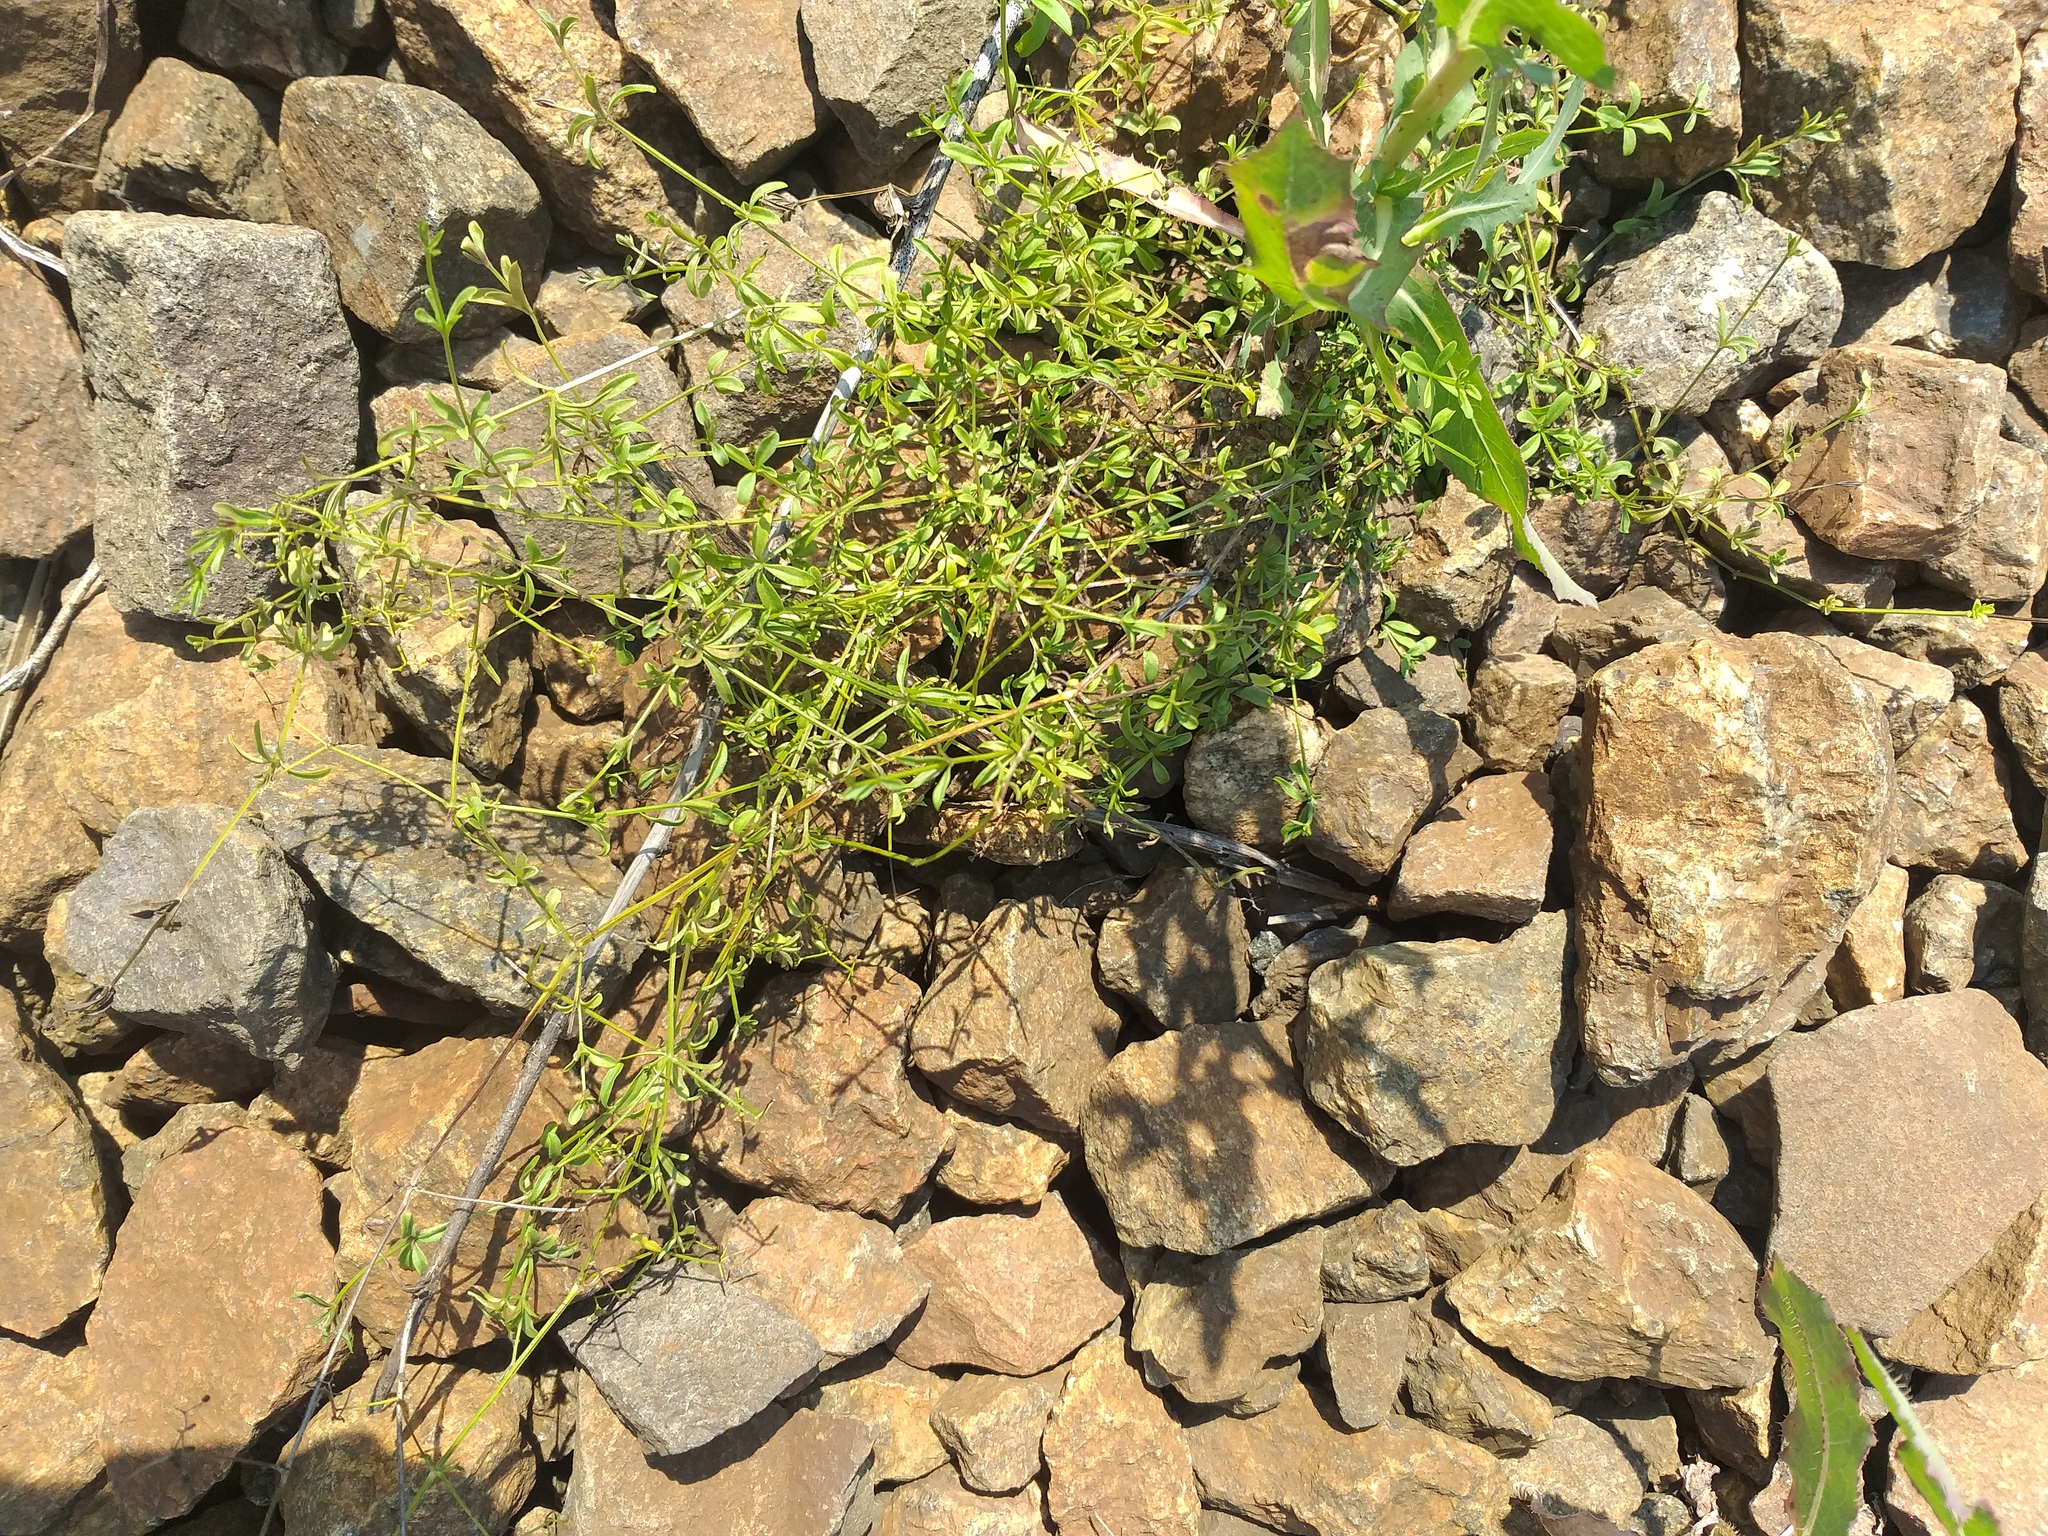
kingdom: Plantae
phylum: Tracheophyta
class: Magnoliopsida
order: Gentianales
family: Rubiaceae
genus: Galium
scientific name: Galium palustre
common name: Common marsh-bedstraw
